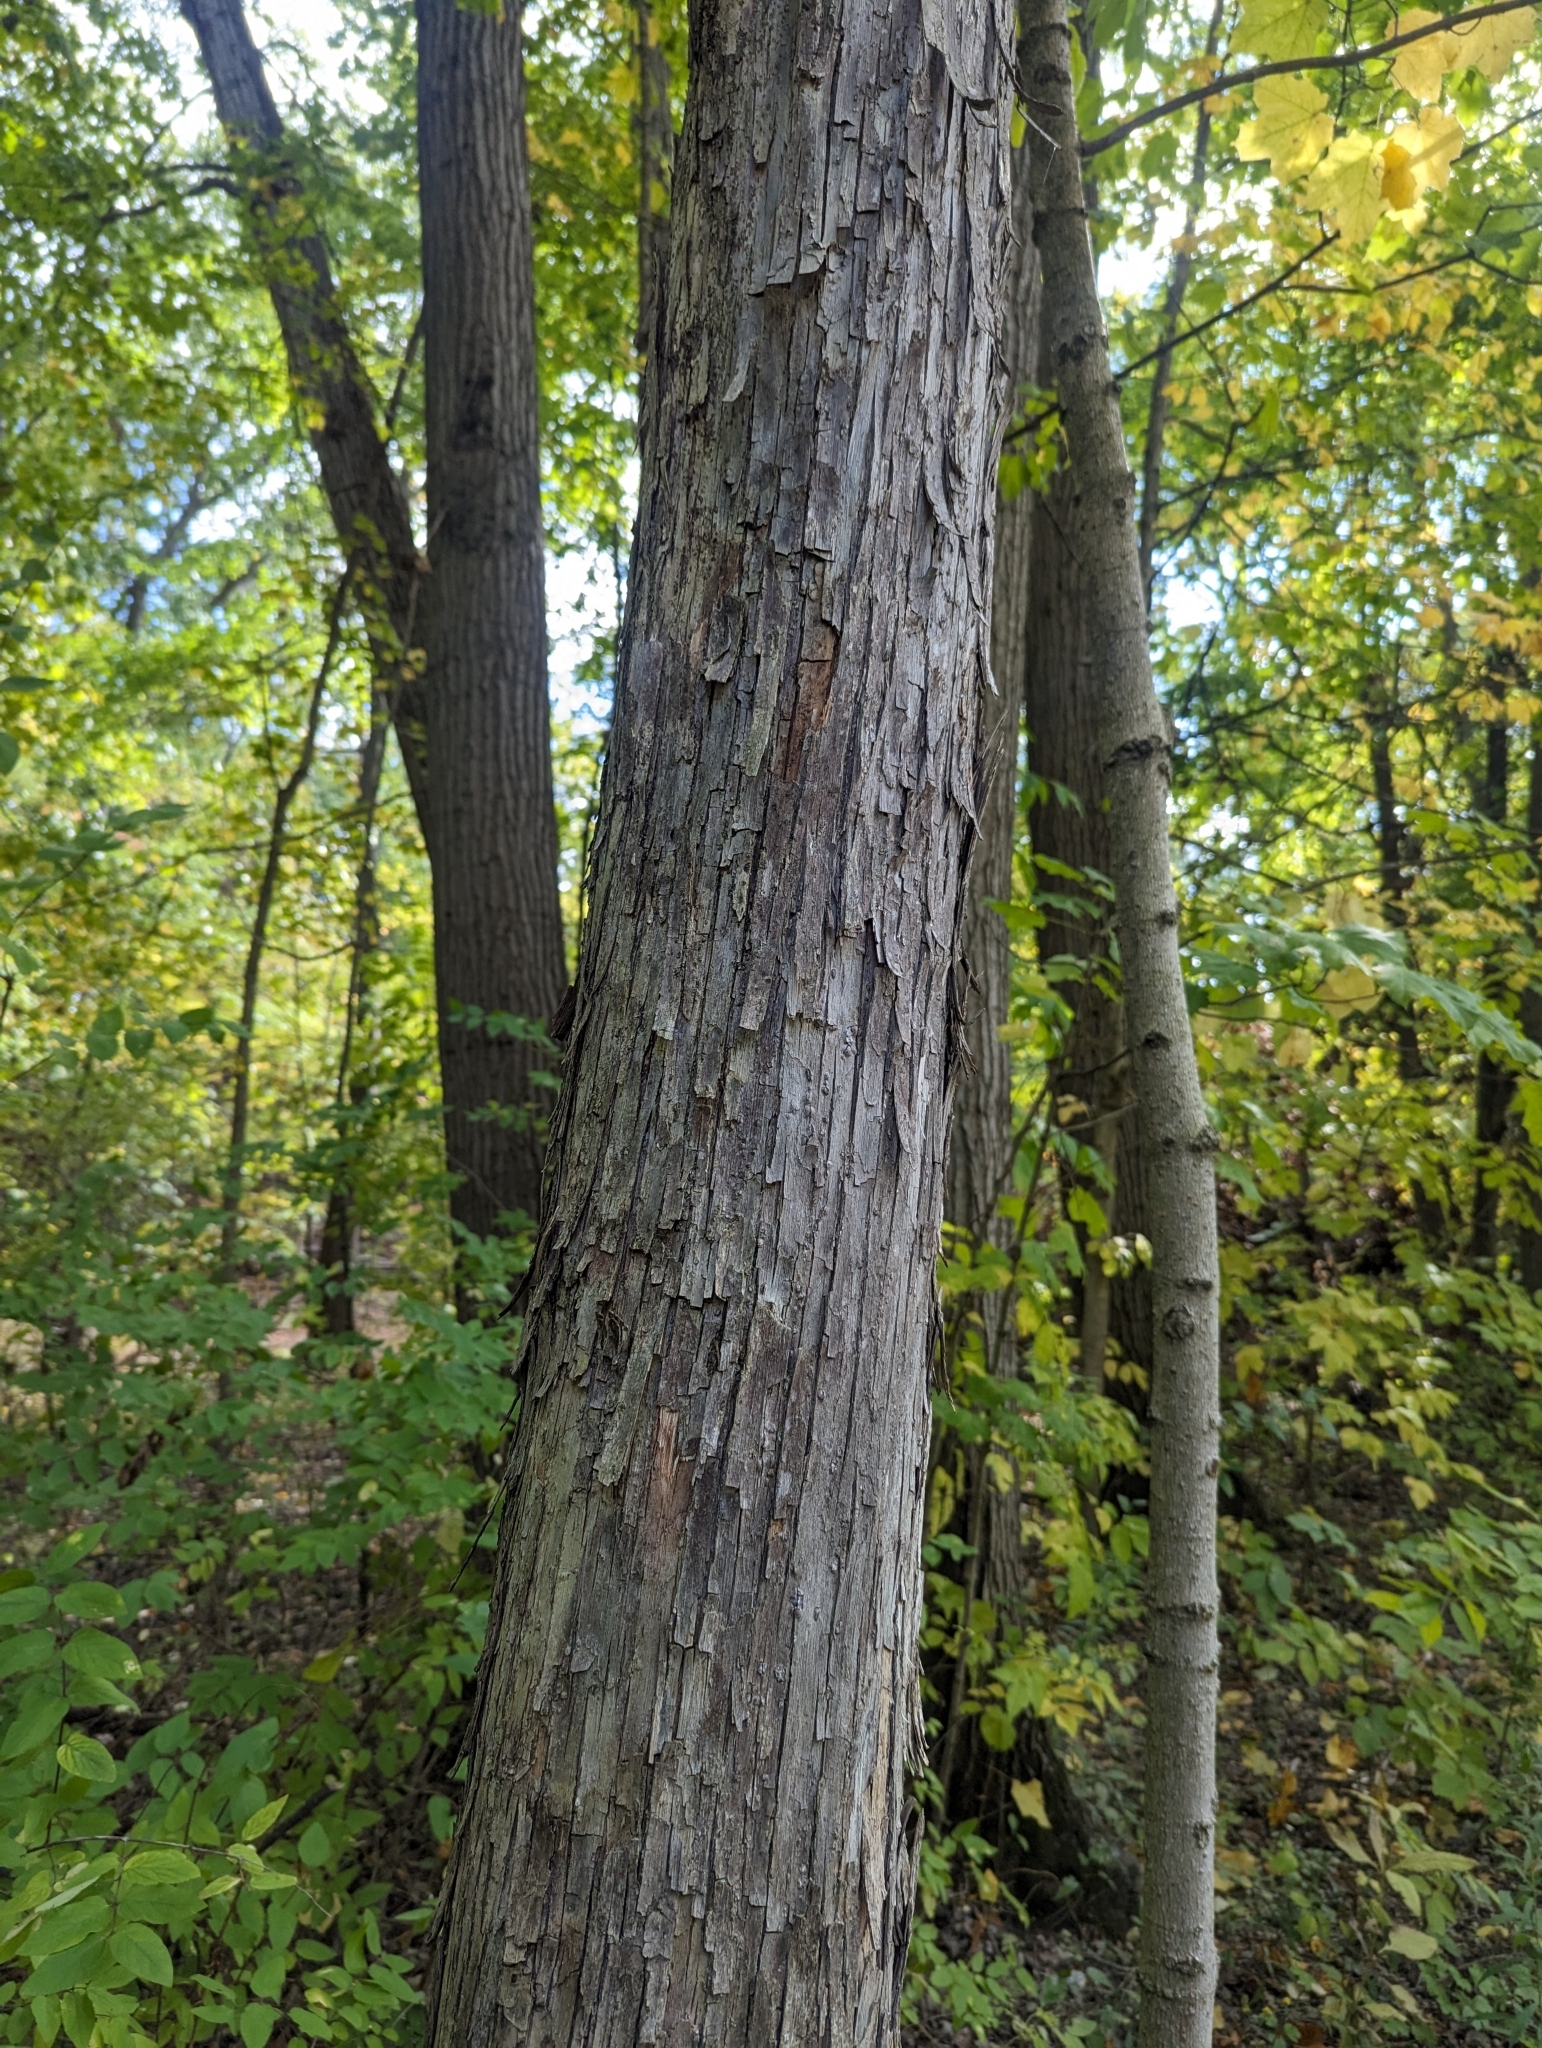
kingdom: Plantae
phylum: Tracheophyta
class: Magnoliopsida
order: Fagales
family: Juglandaceae
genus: Carya
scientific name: Carya ovata
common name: Shagbark hickory
